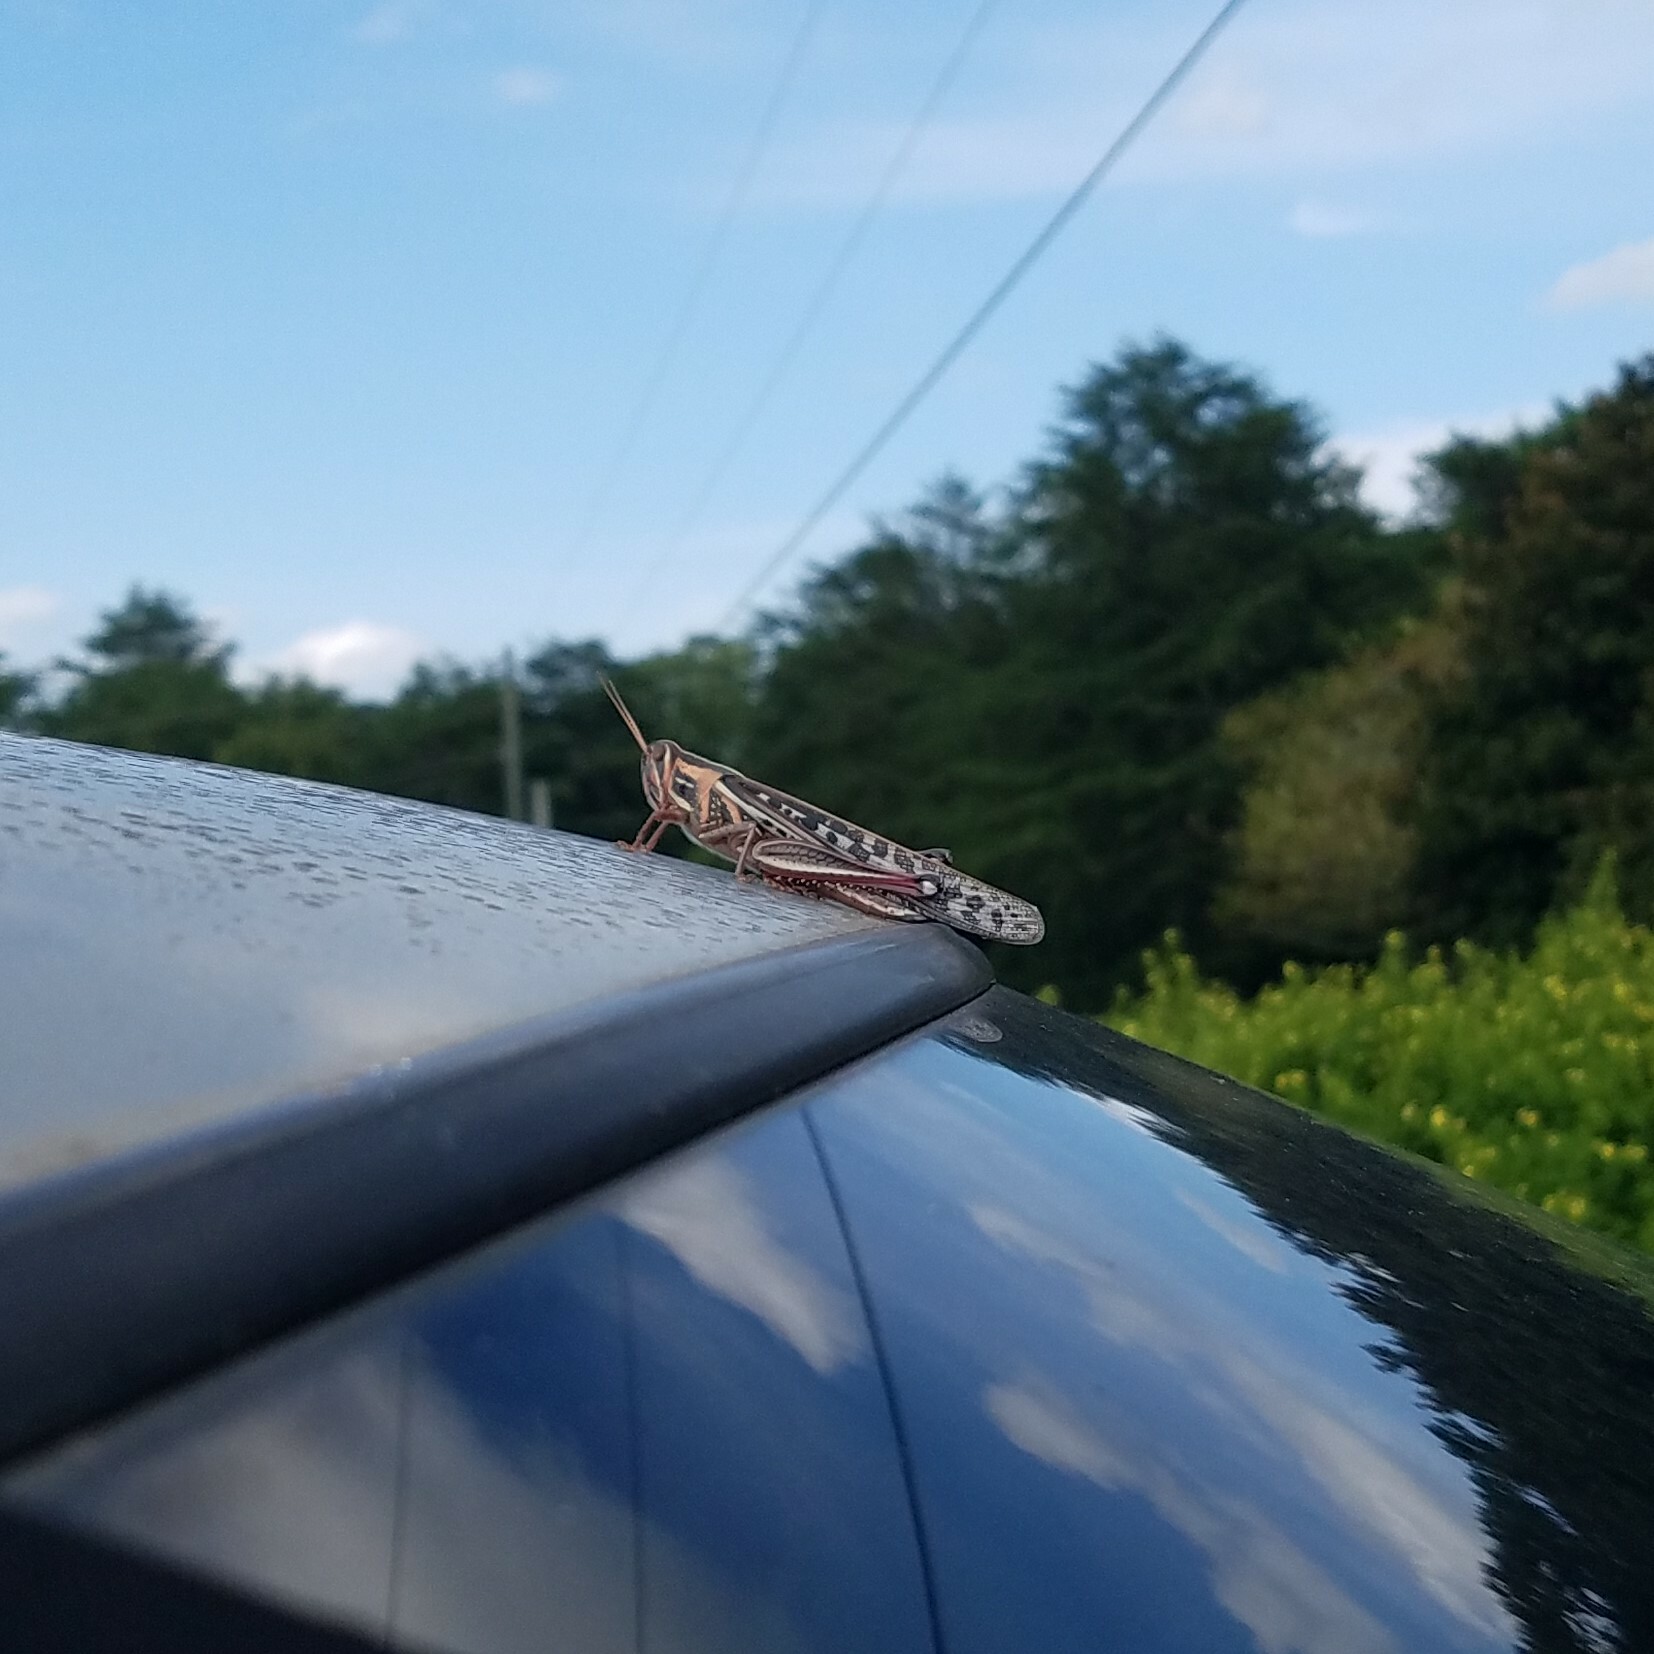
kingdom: Animalia
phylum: Arthropoda
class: Insecta
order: Orthoptera
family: Acrididae
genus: Schistocerca
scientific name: Schistocerca americana
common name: American bird locust
